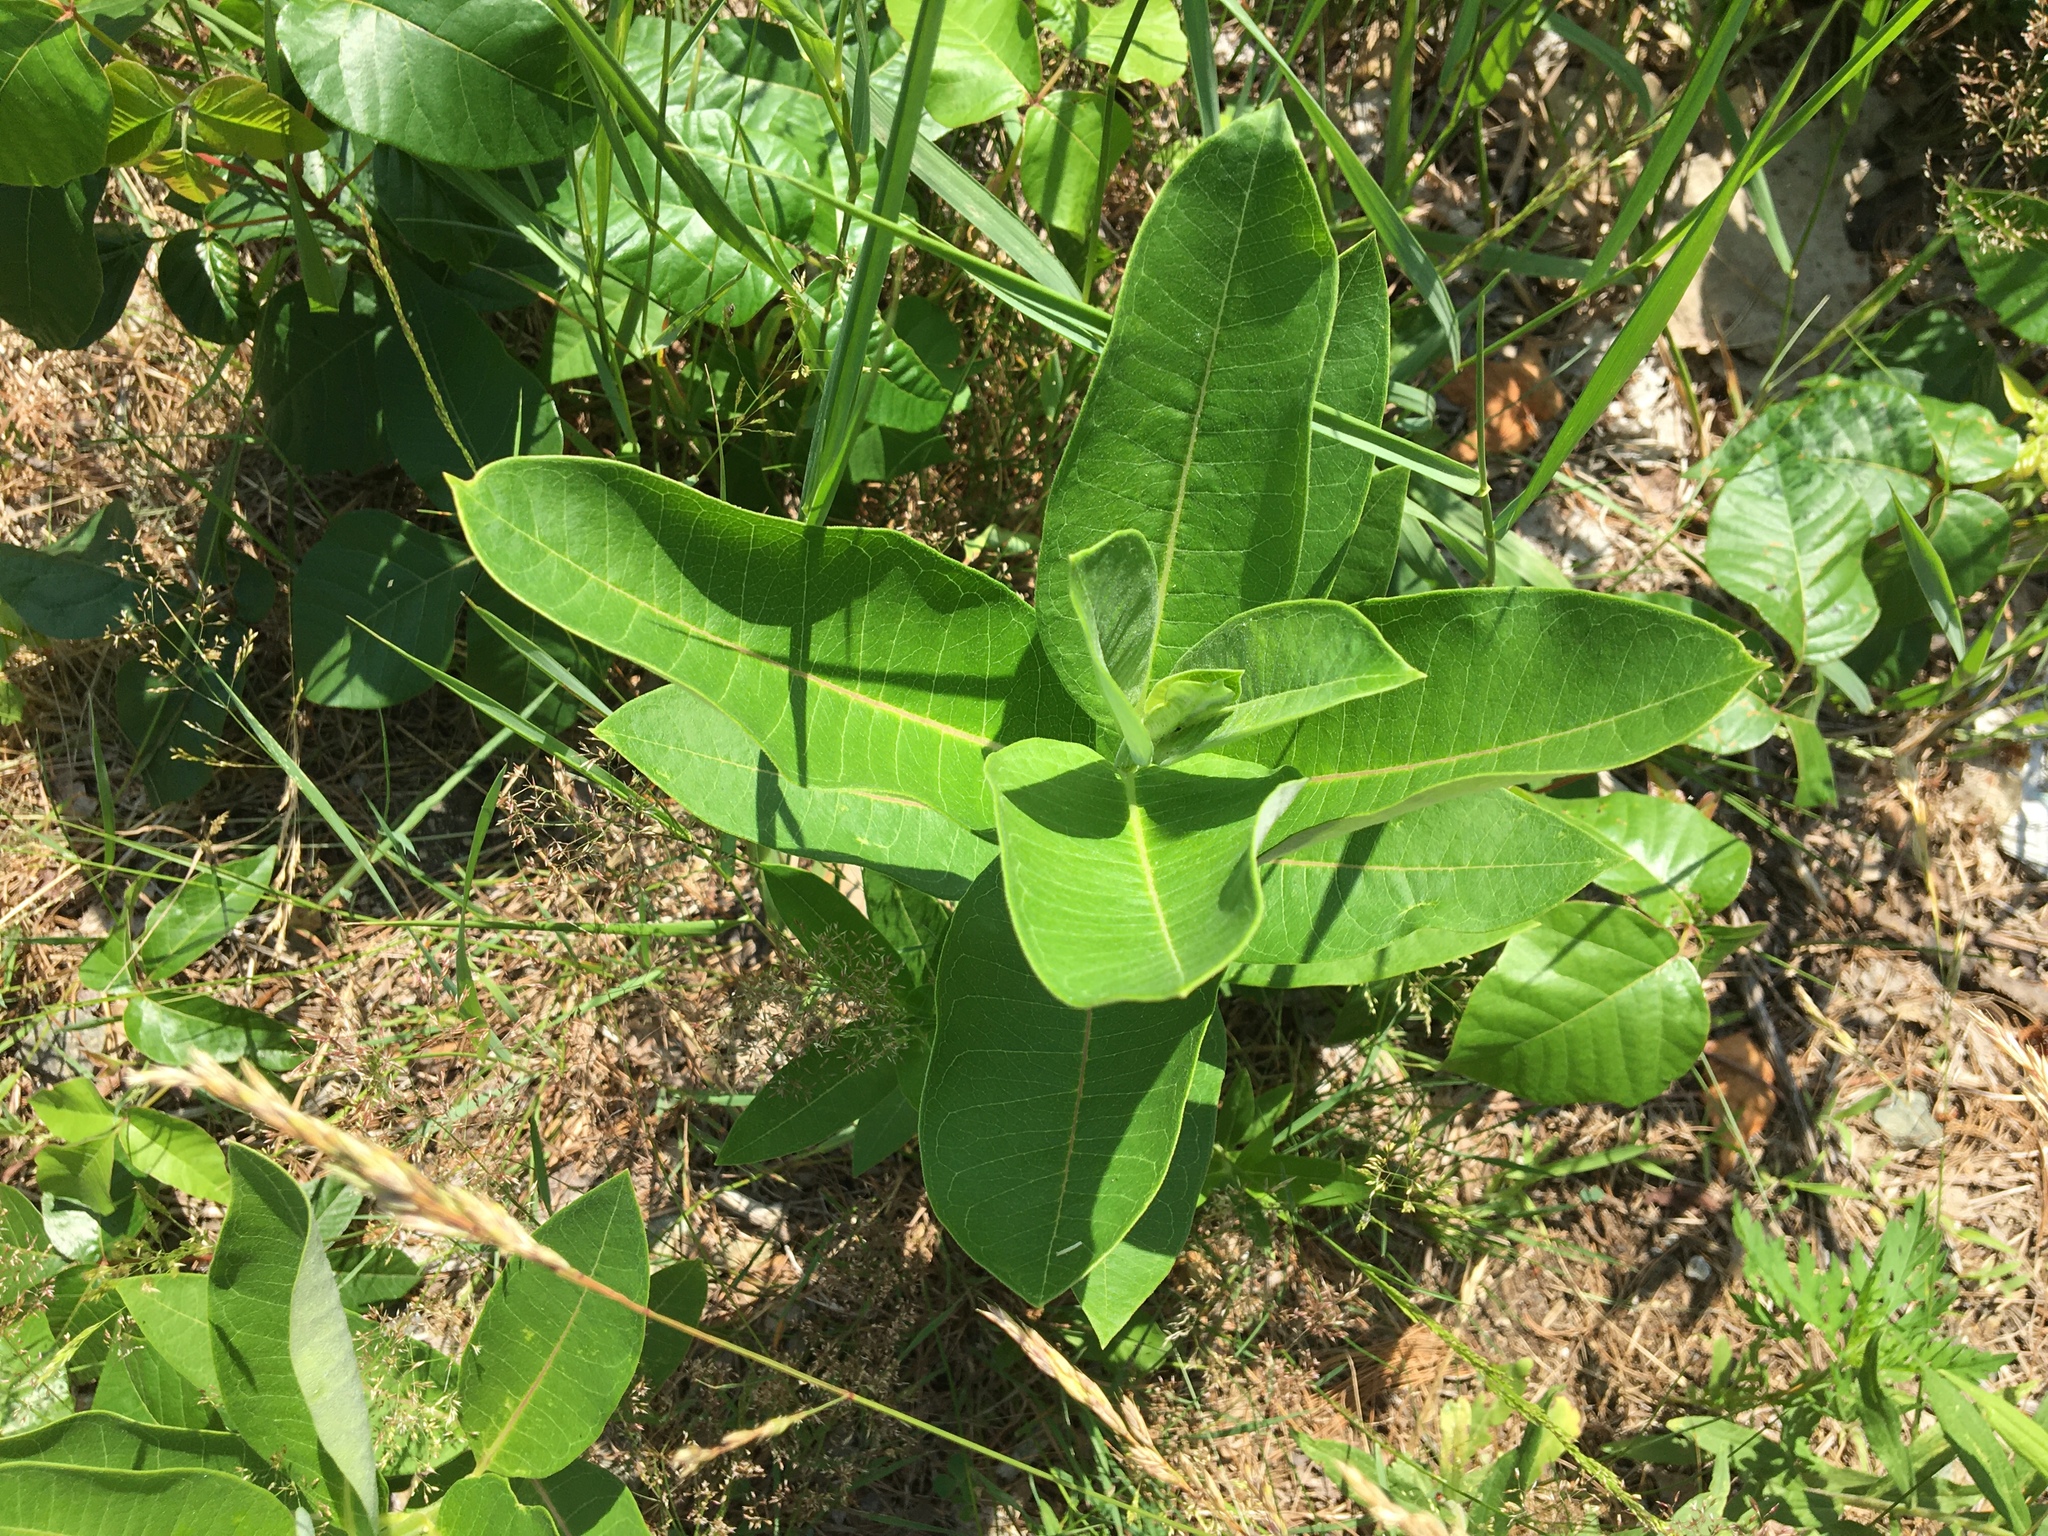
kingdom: Plantae
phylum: Tracheophyta
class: Magnoliopsida
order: Gentianales
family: Apocynaceae
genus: Asclepias
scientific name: Asclepias syriaca
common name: Common milkweed
